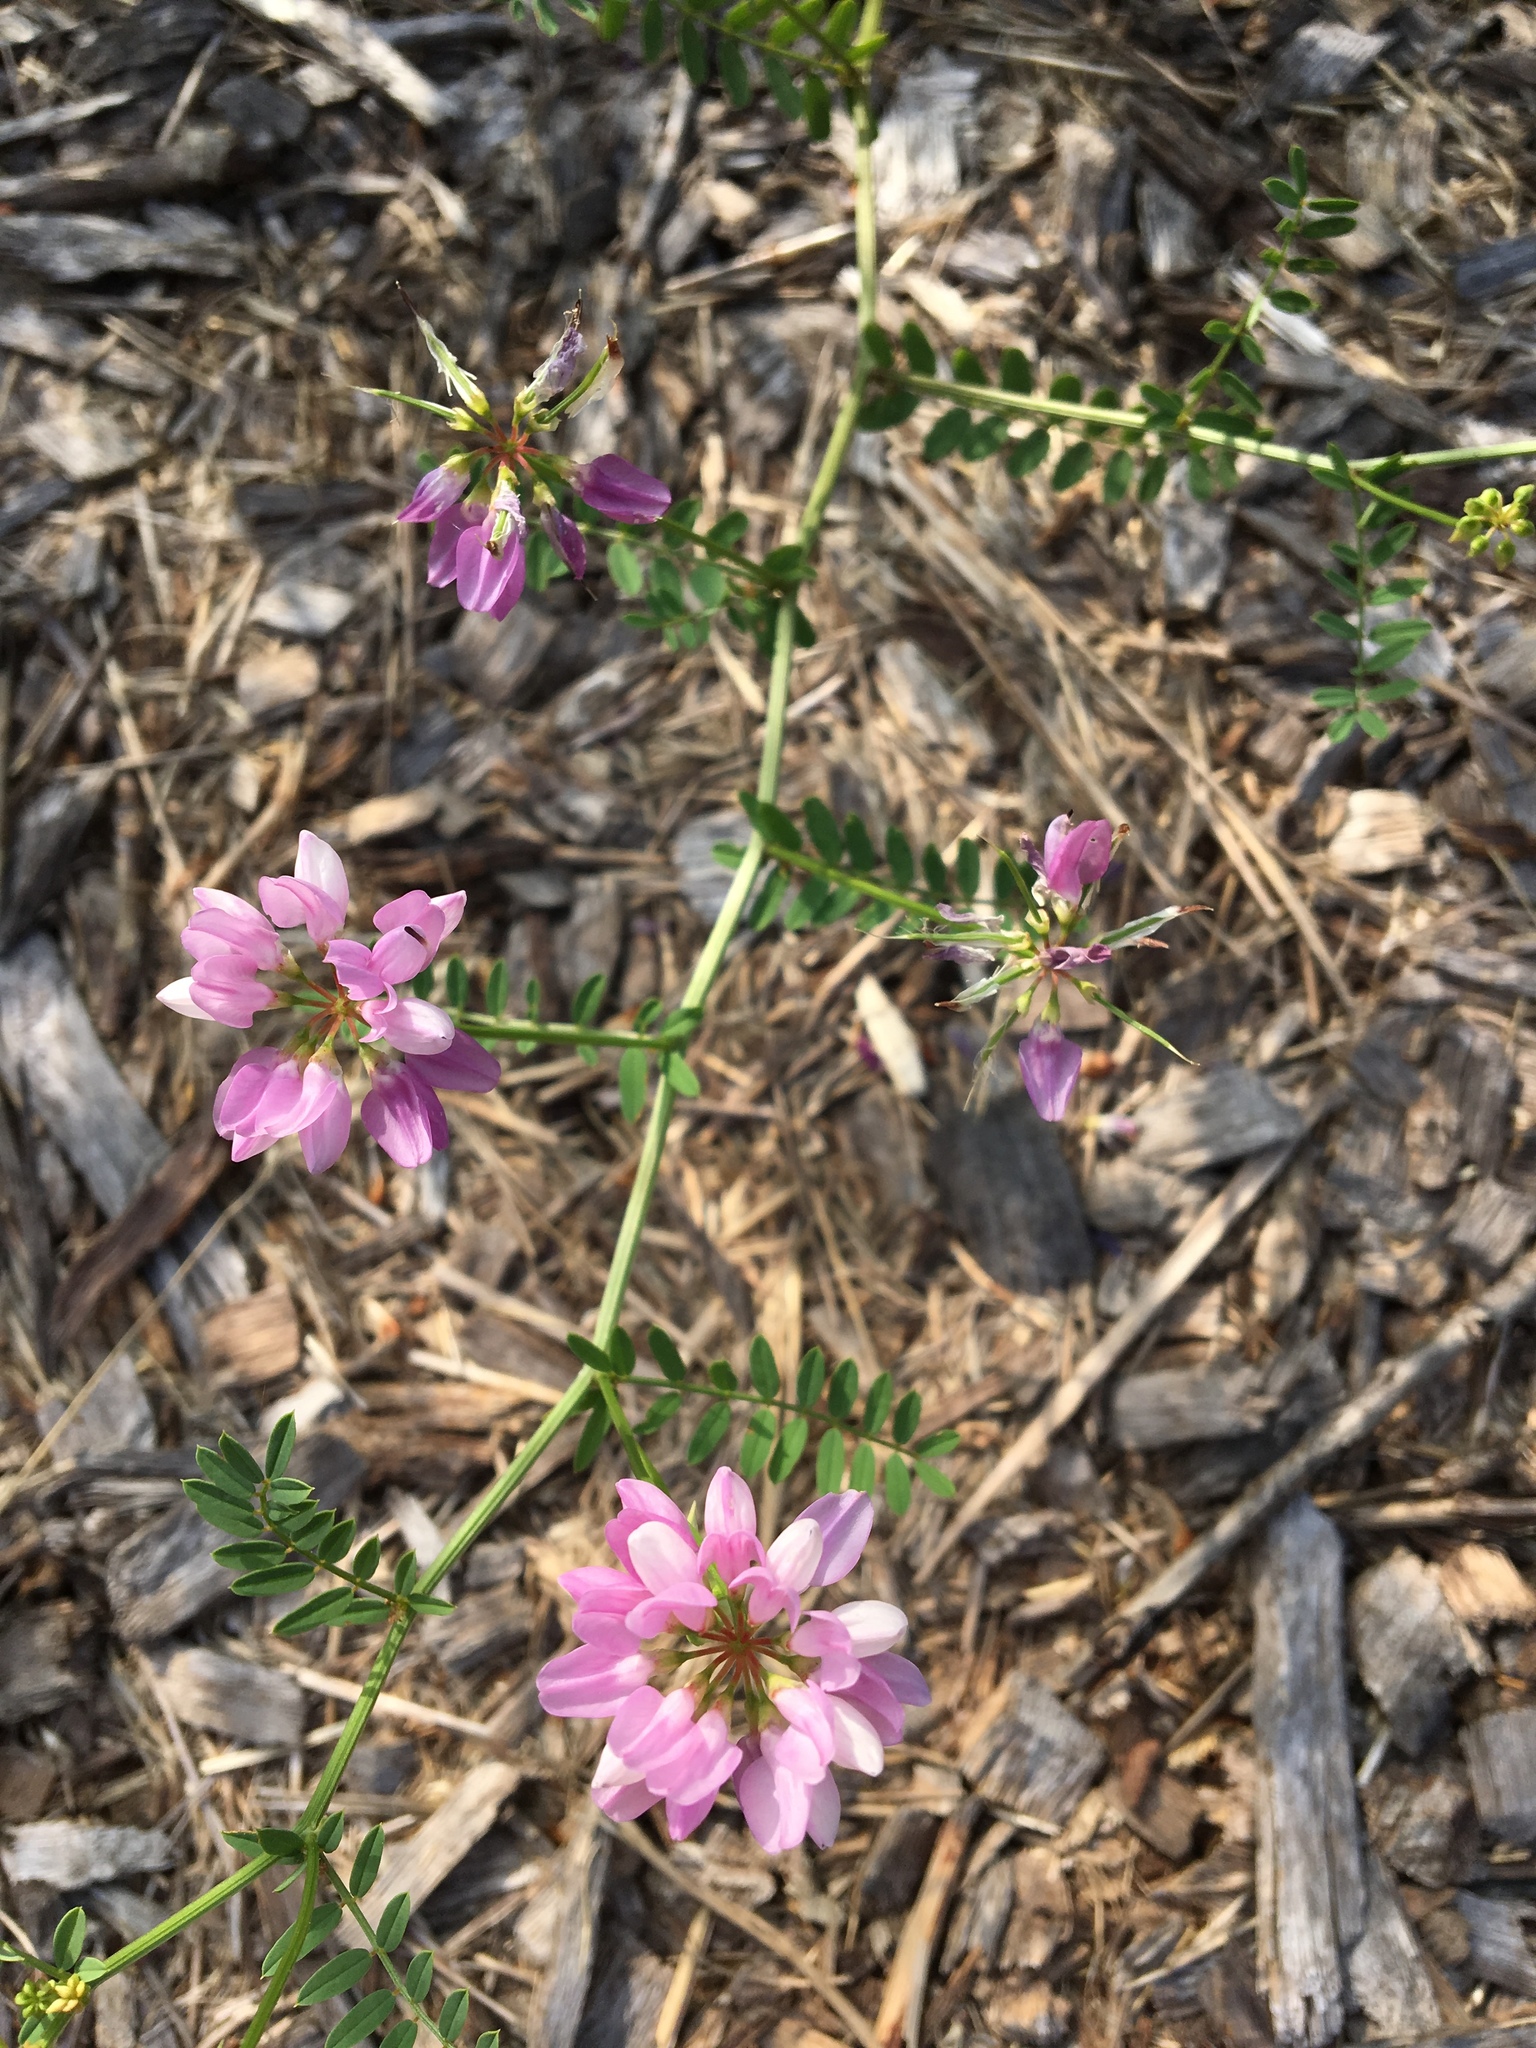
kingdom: Plantae
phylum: Tracheophyta
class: Magnoliopsida
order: Fabales
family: Fabaceae
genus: Coronilla
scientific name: Coronilla varia
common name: Crownvetch
